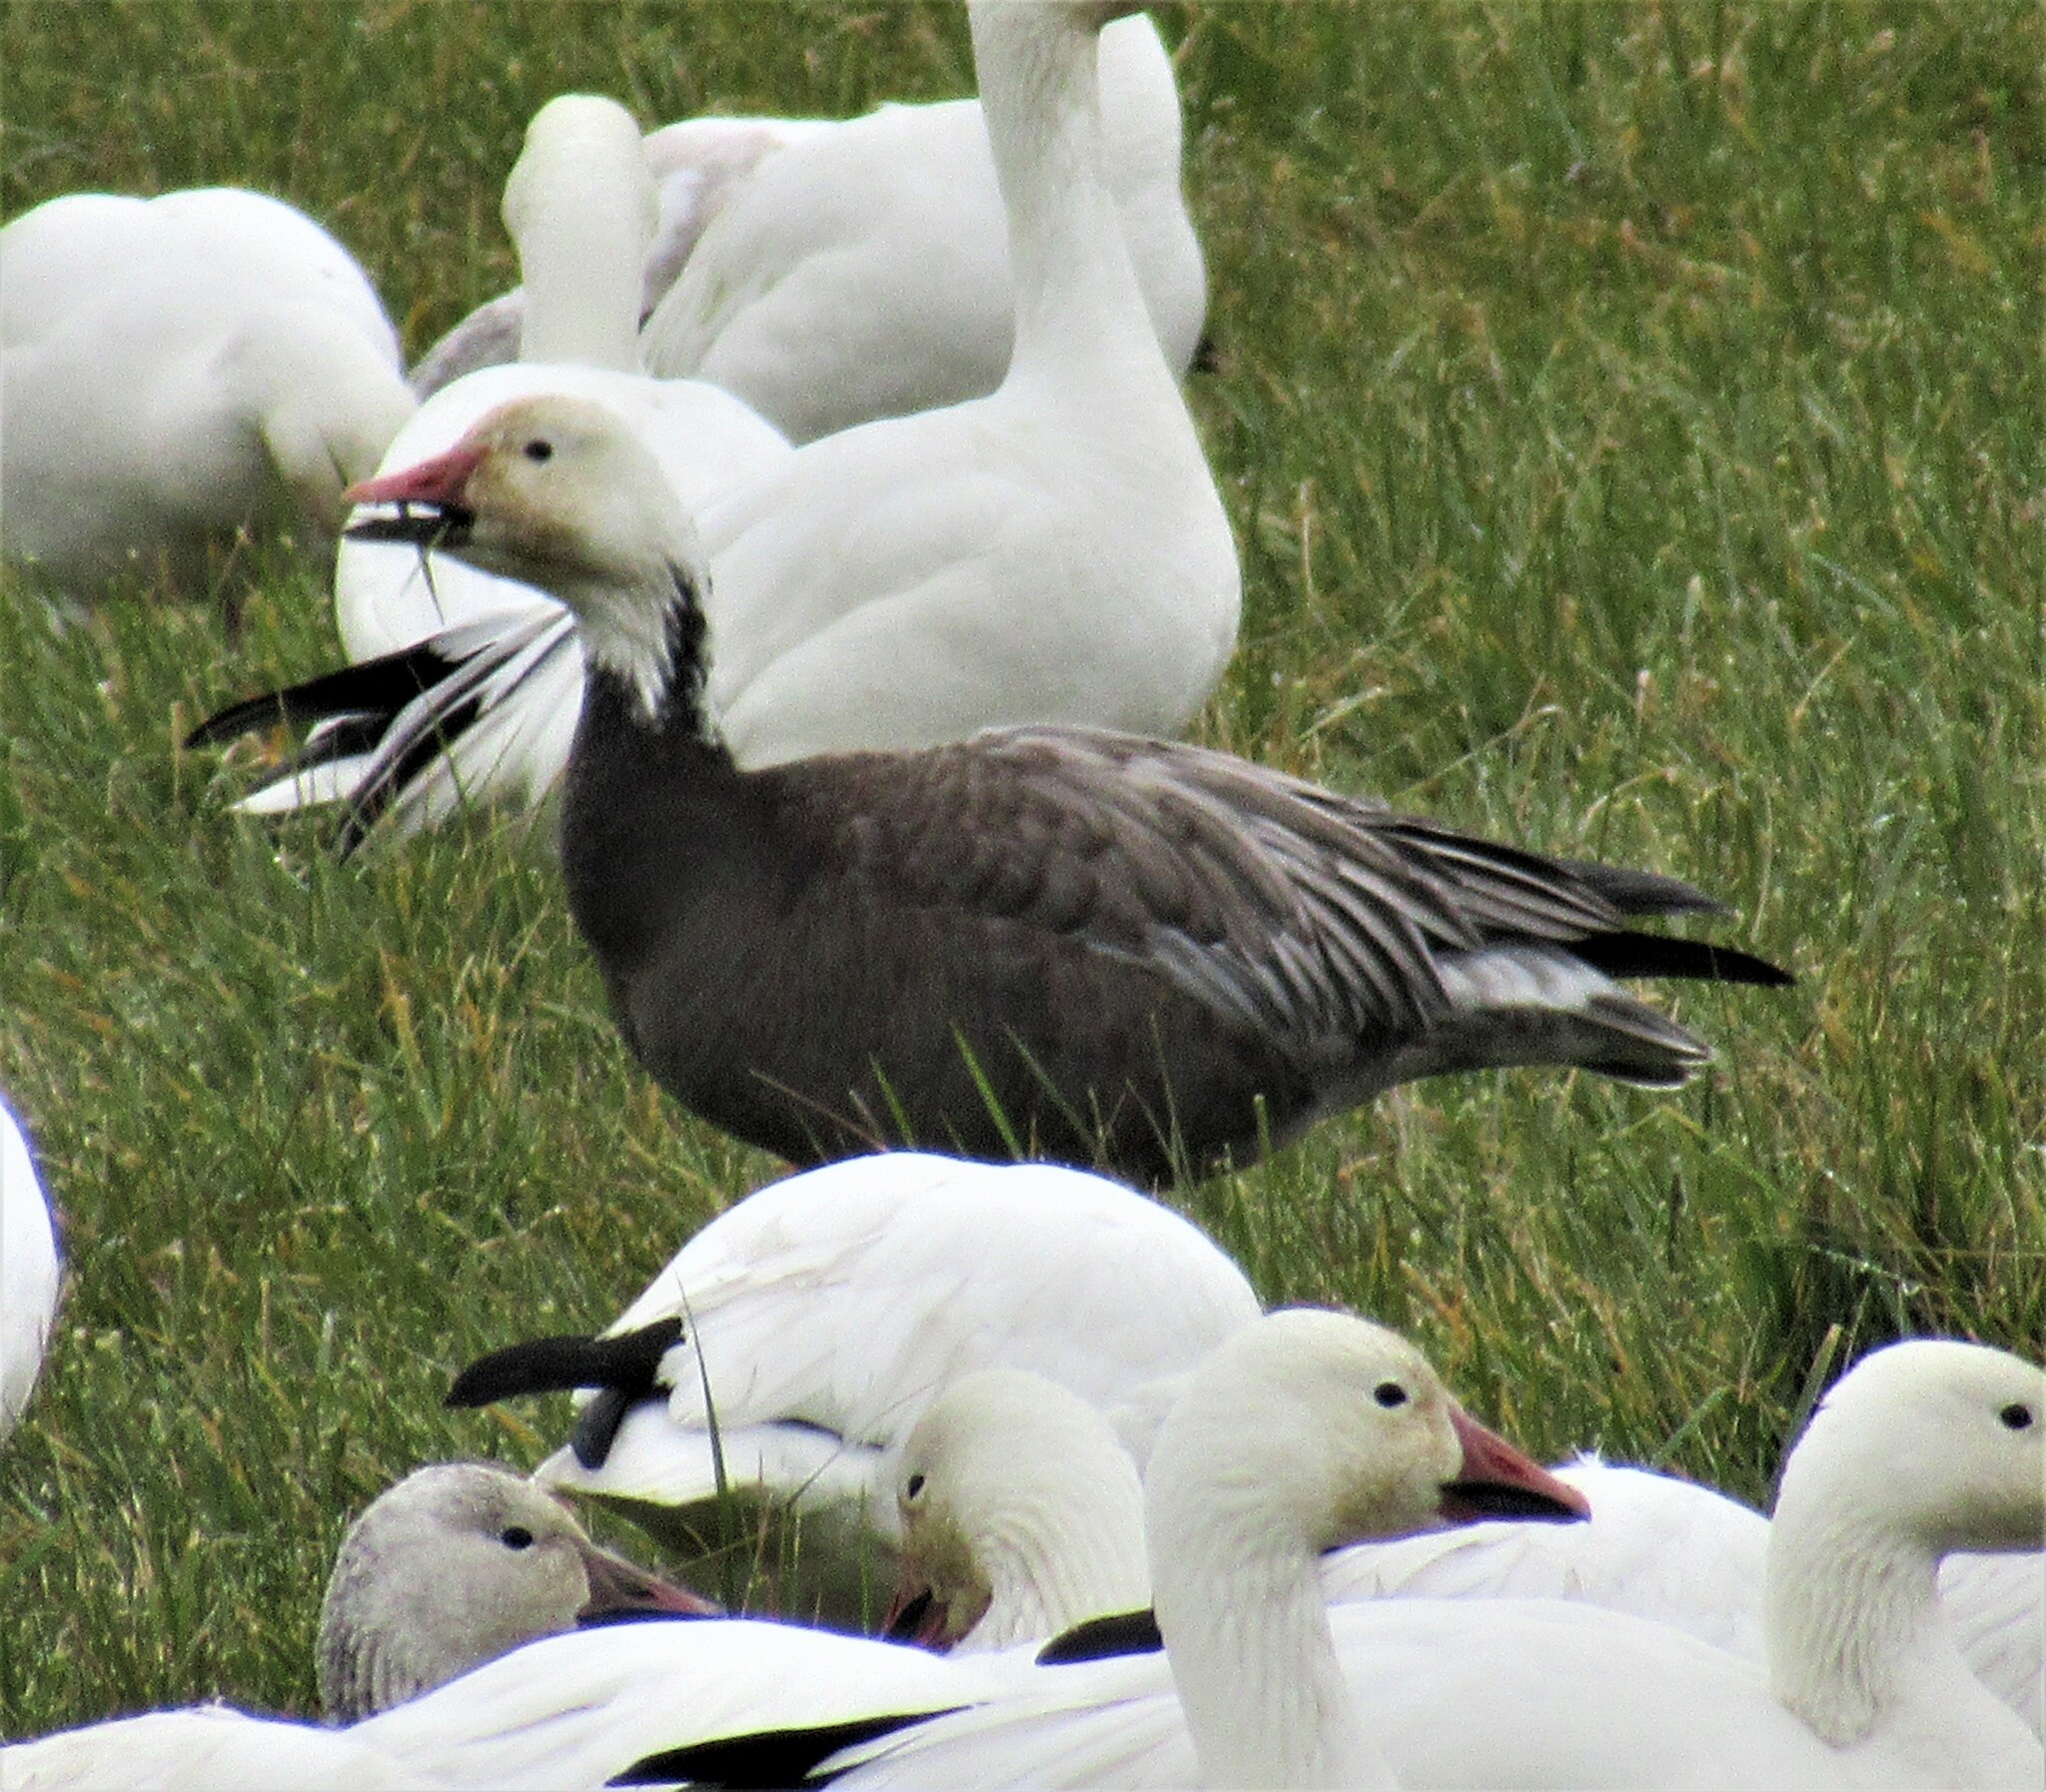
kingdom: Animalia
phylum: Chordata
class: Aves
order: Anseriformes
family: Anatidae
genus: Anser
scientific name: Anser caerulescens
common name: Snow goose
